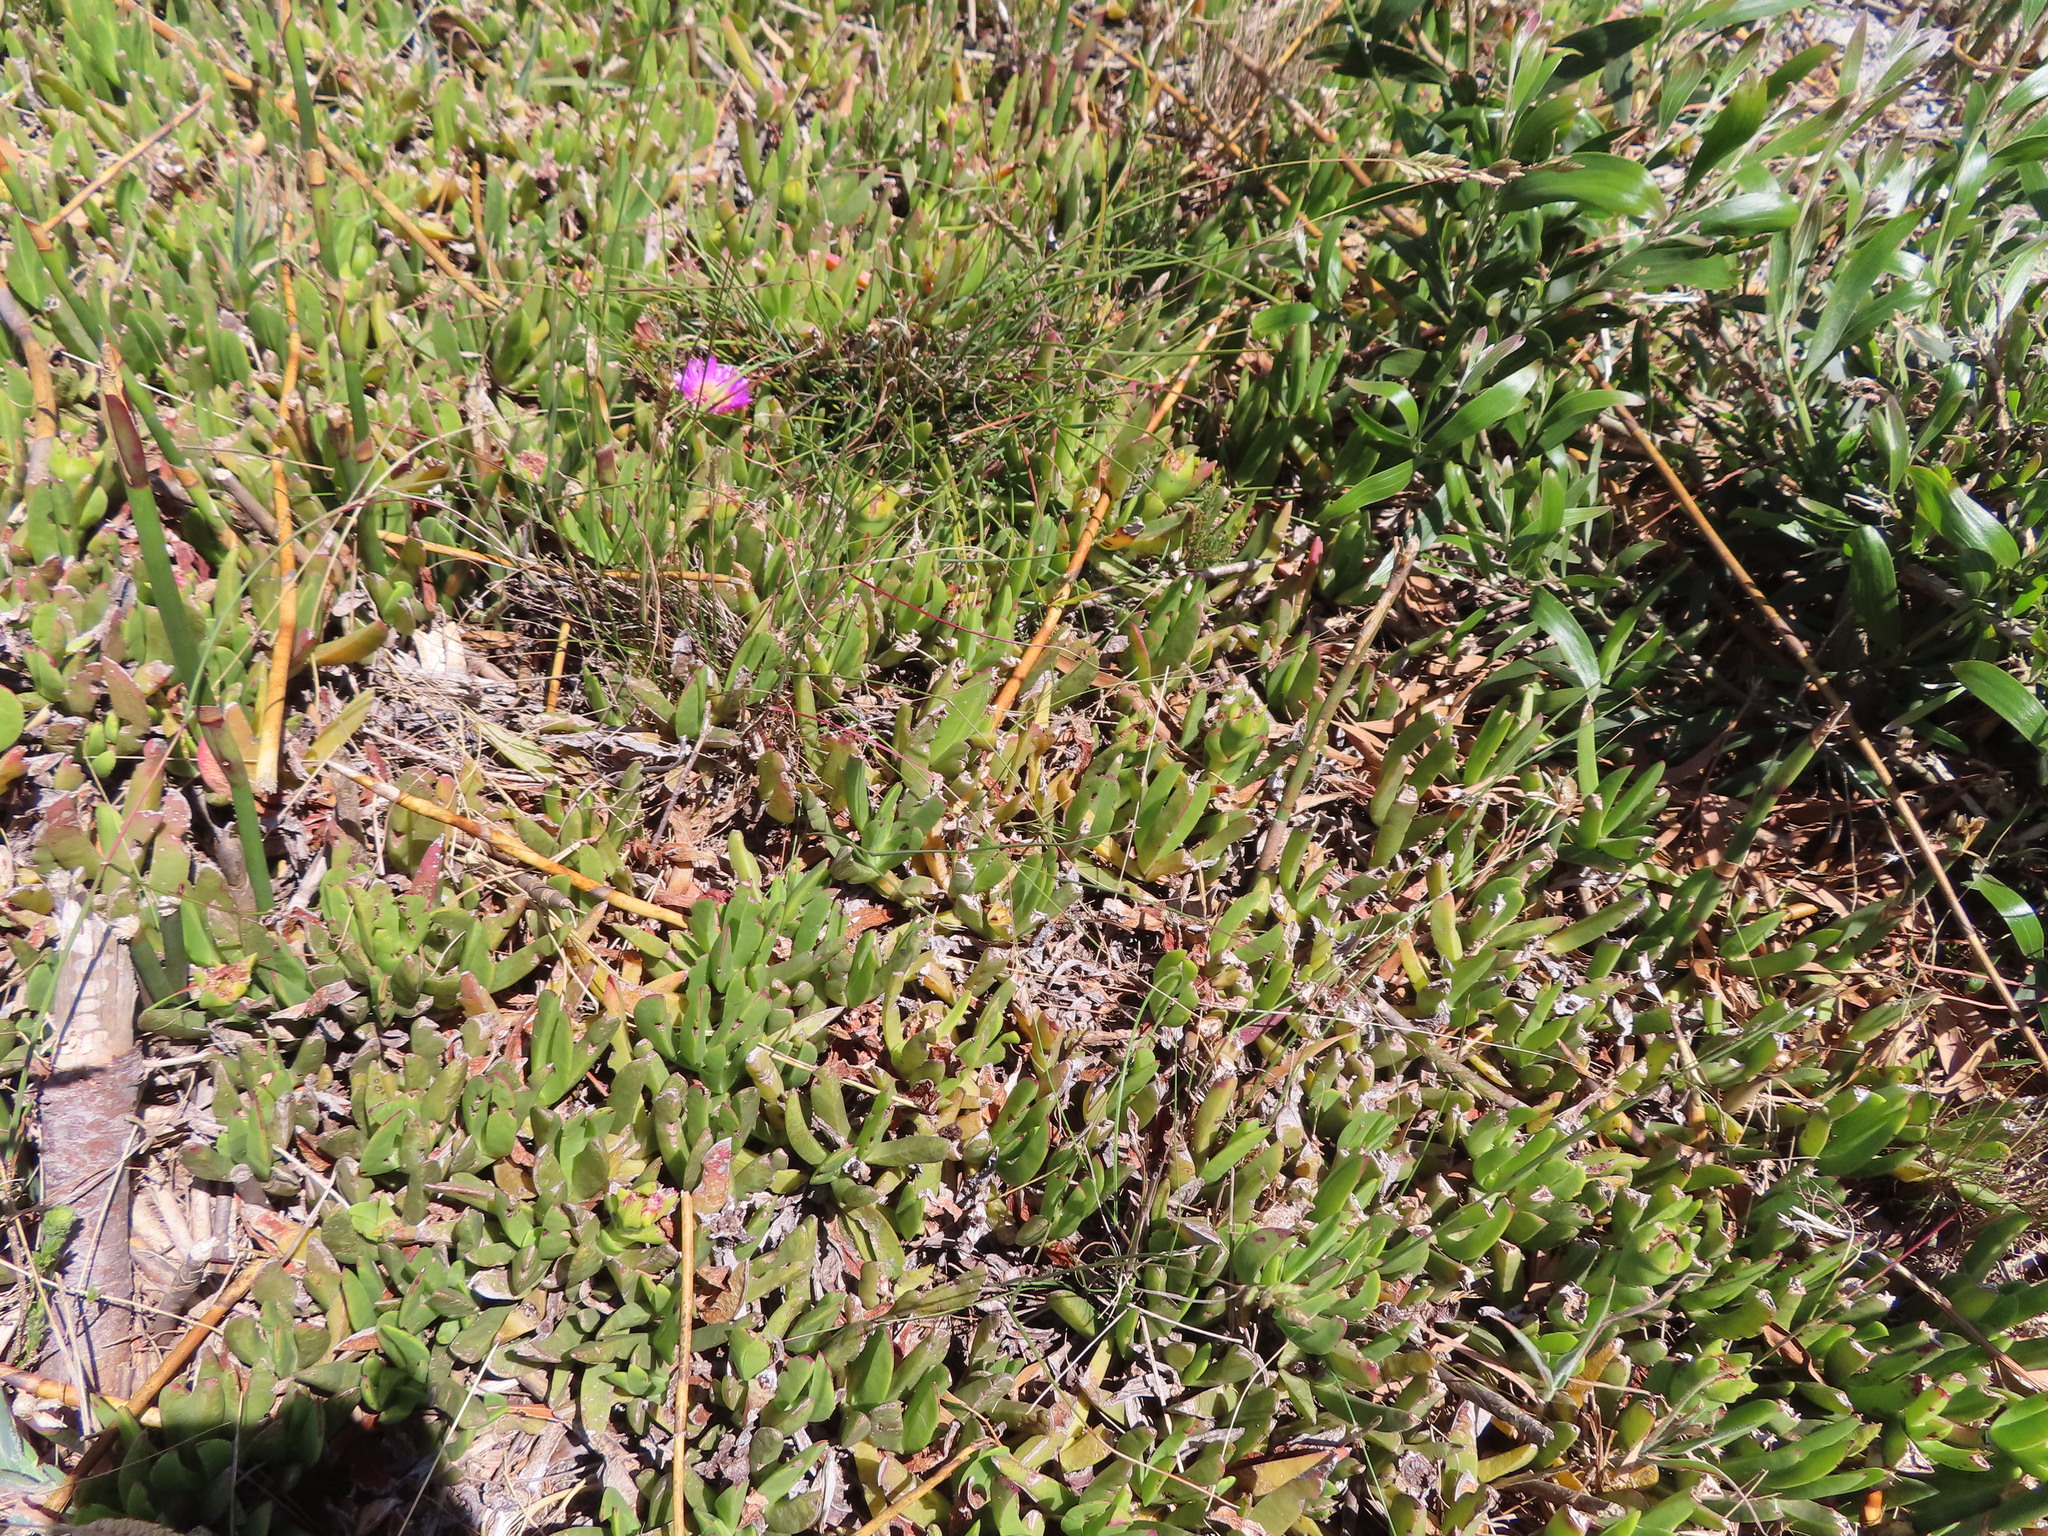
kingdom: Plantae
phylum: Tracheophyta
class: Magnoliopsida
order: Caryophyllales
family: Aizoaceae
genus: Carpobrotus
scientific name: Carpobrotus mellei
